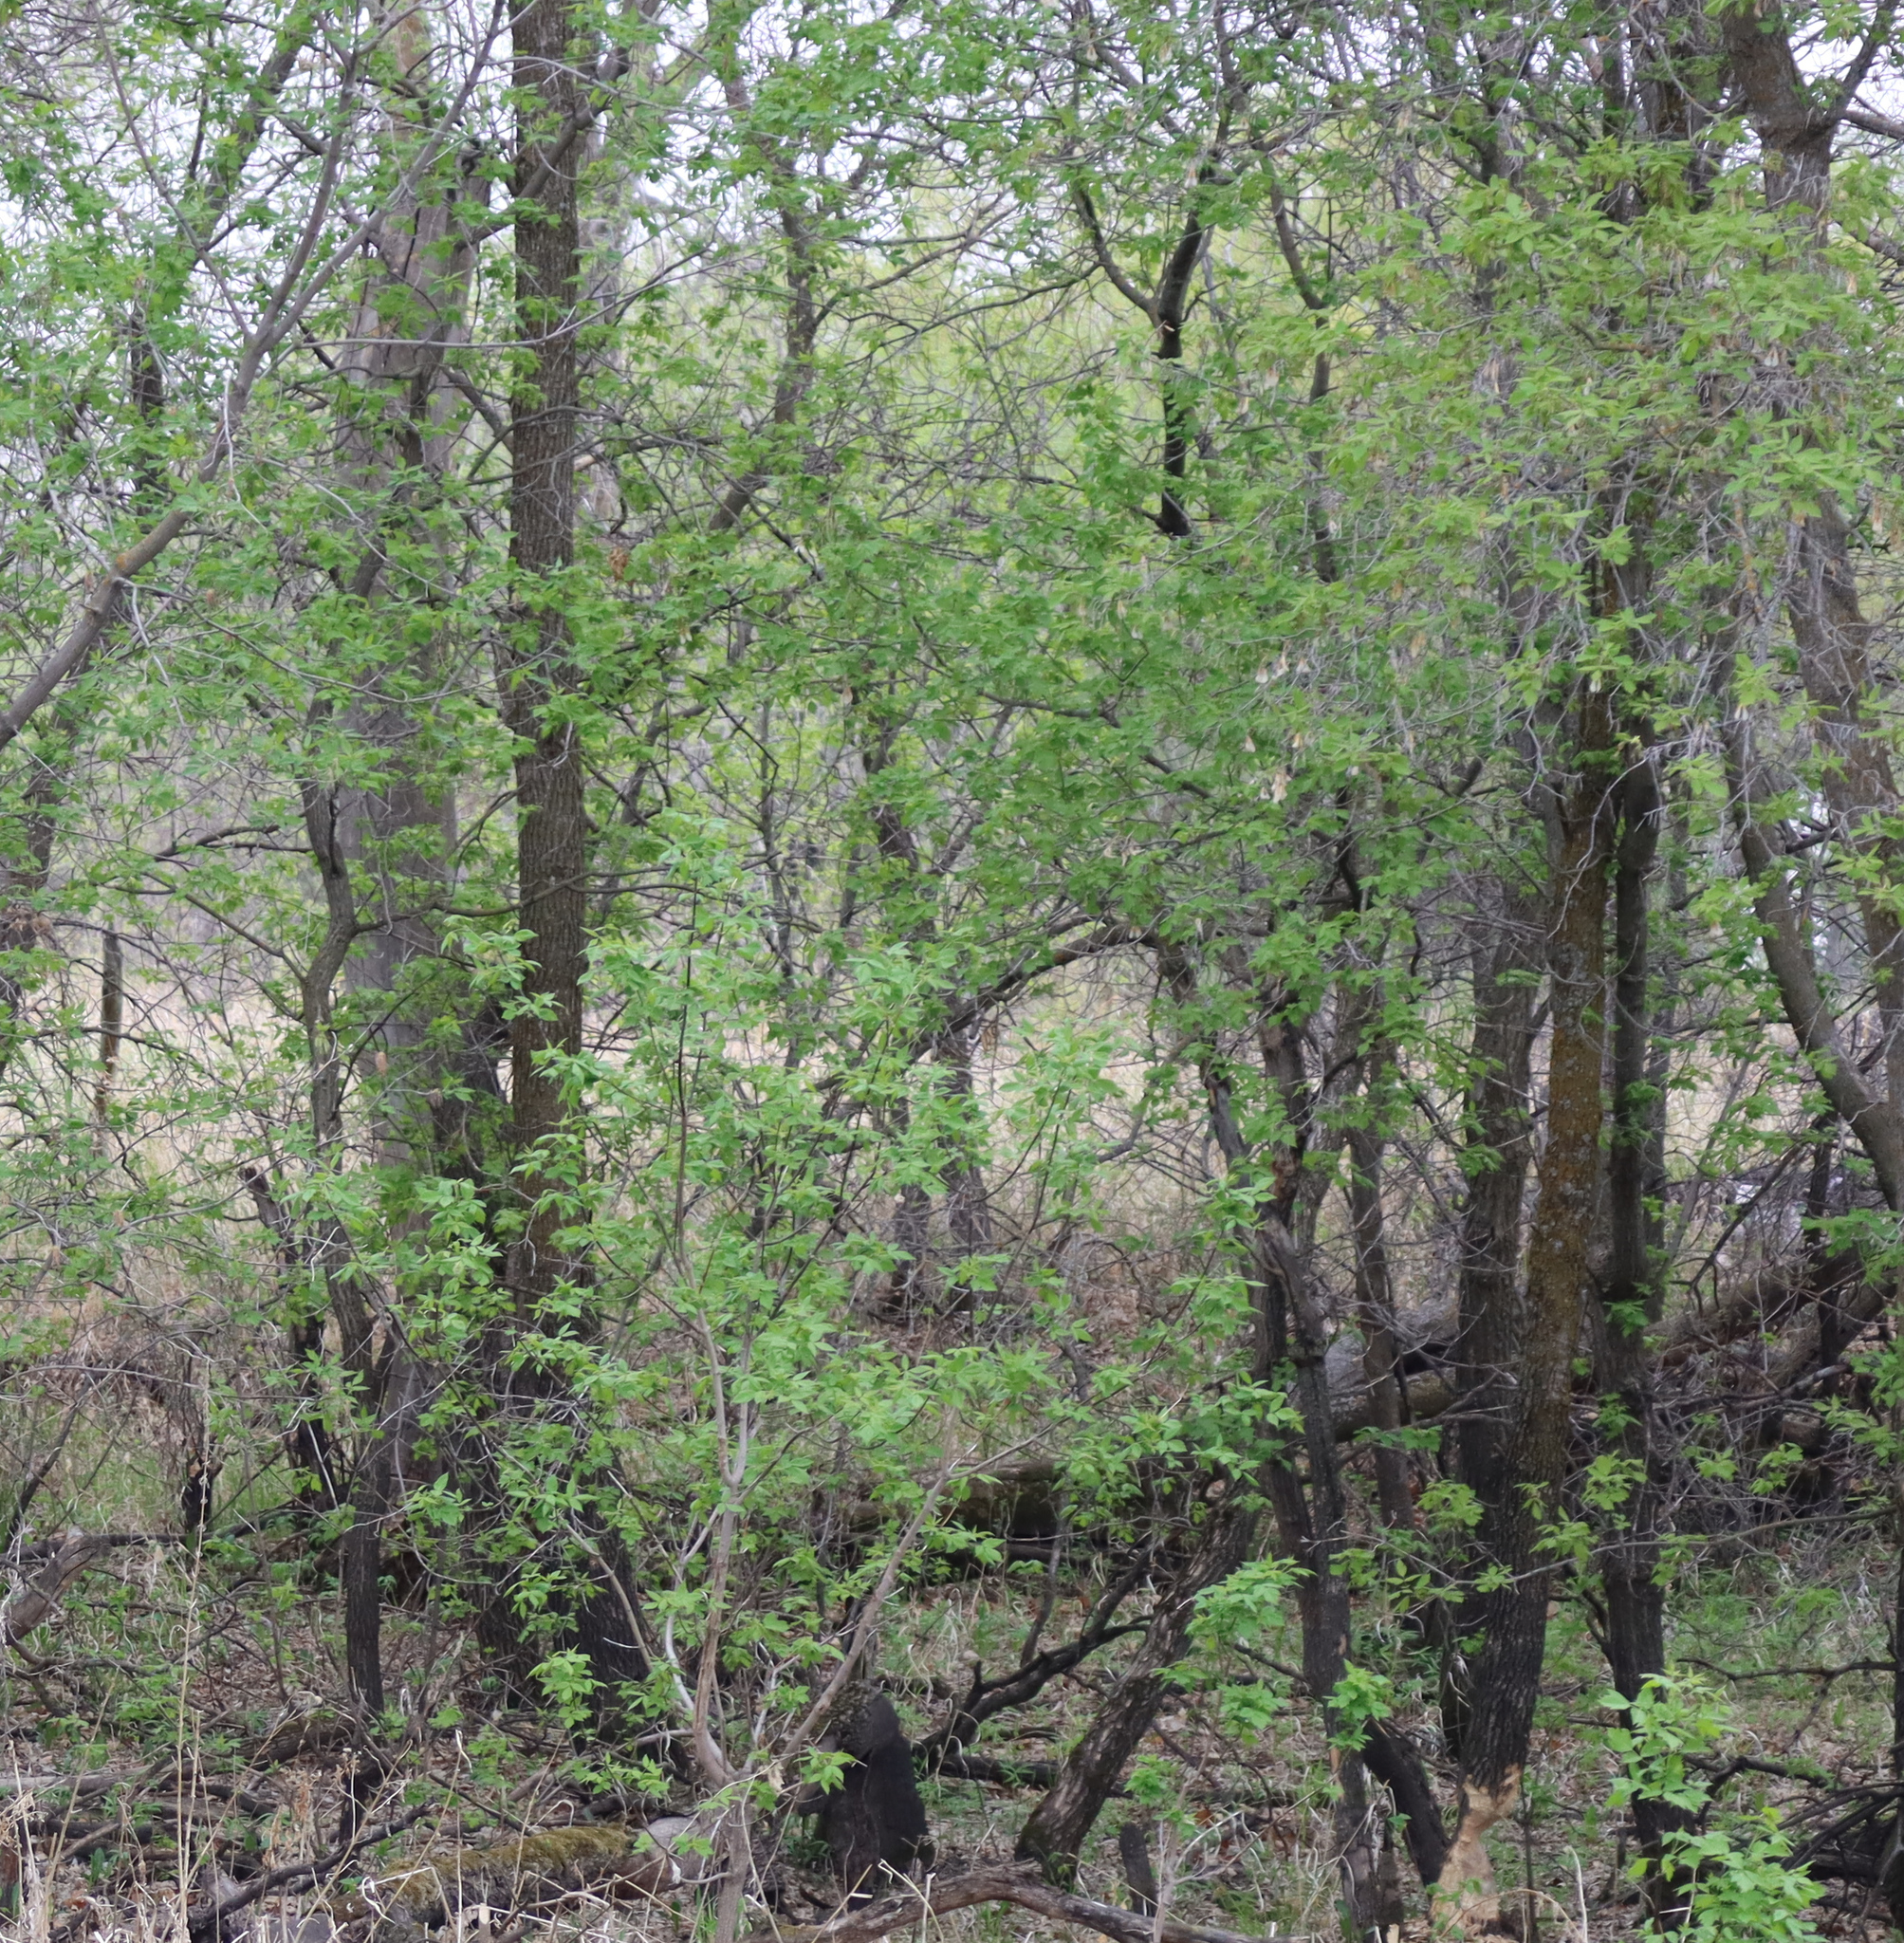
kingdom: Plantae
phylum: Tracheophyta
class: Magnoliopsida
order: Sapindales
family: Sapindaceae
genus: Acer
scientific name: Acer negundo
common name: Ashleaf maple
